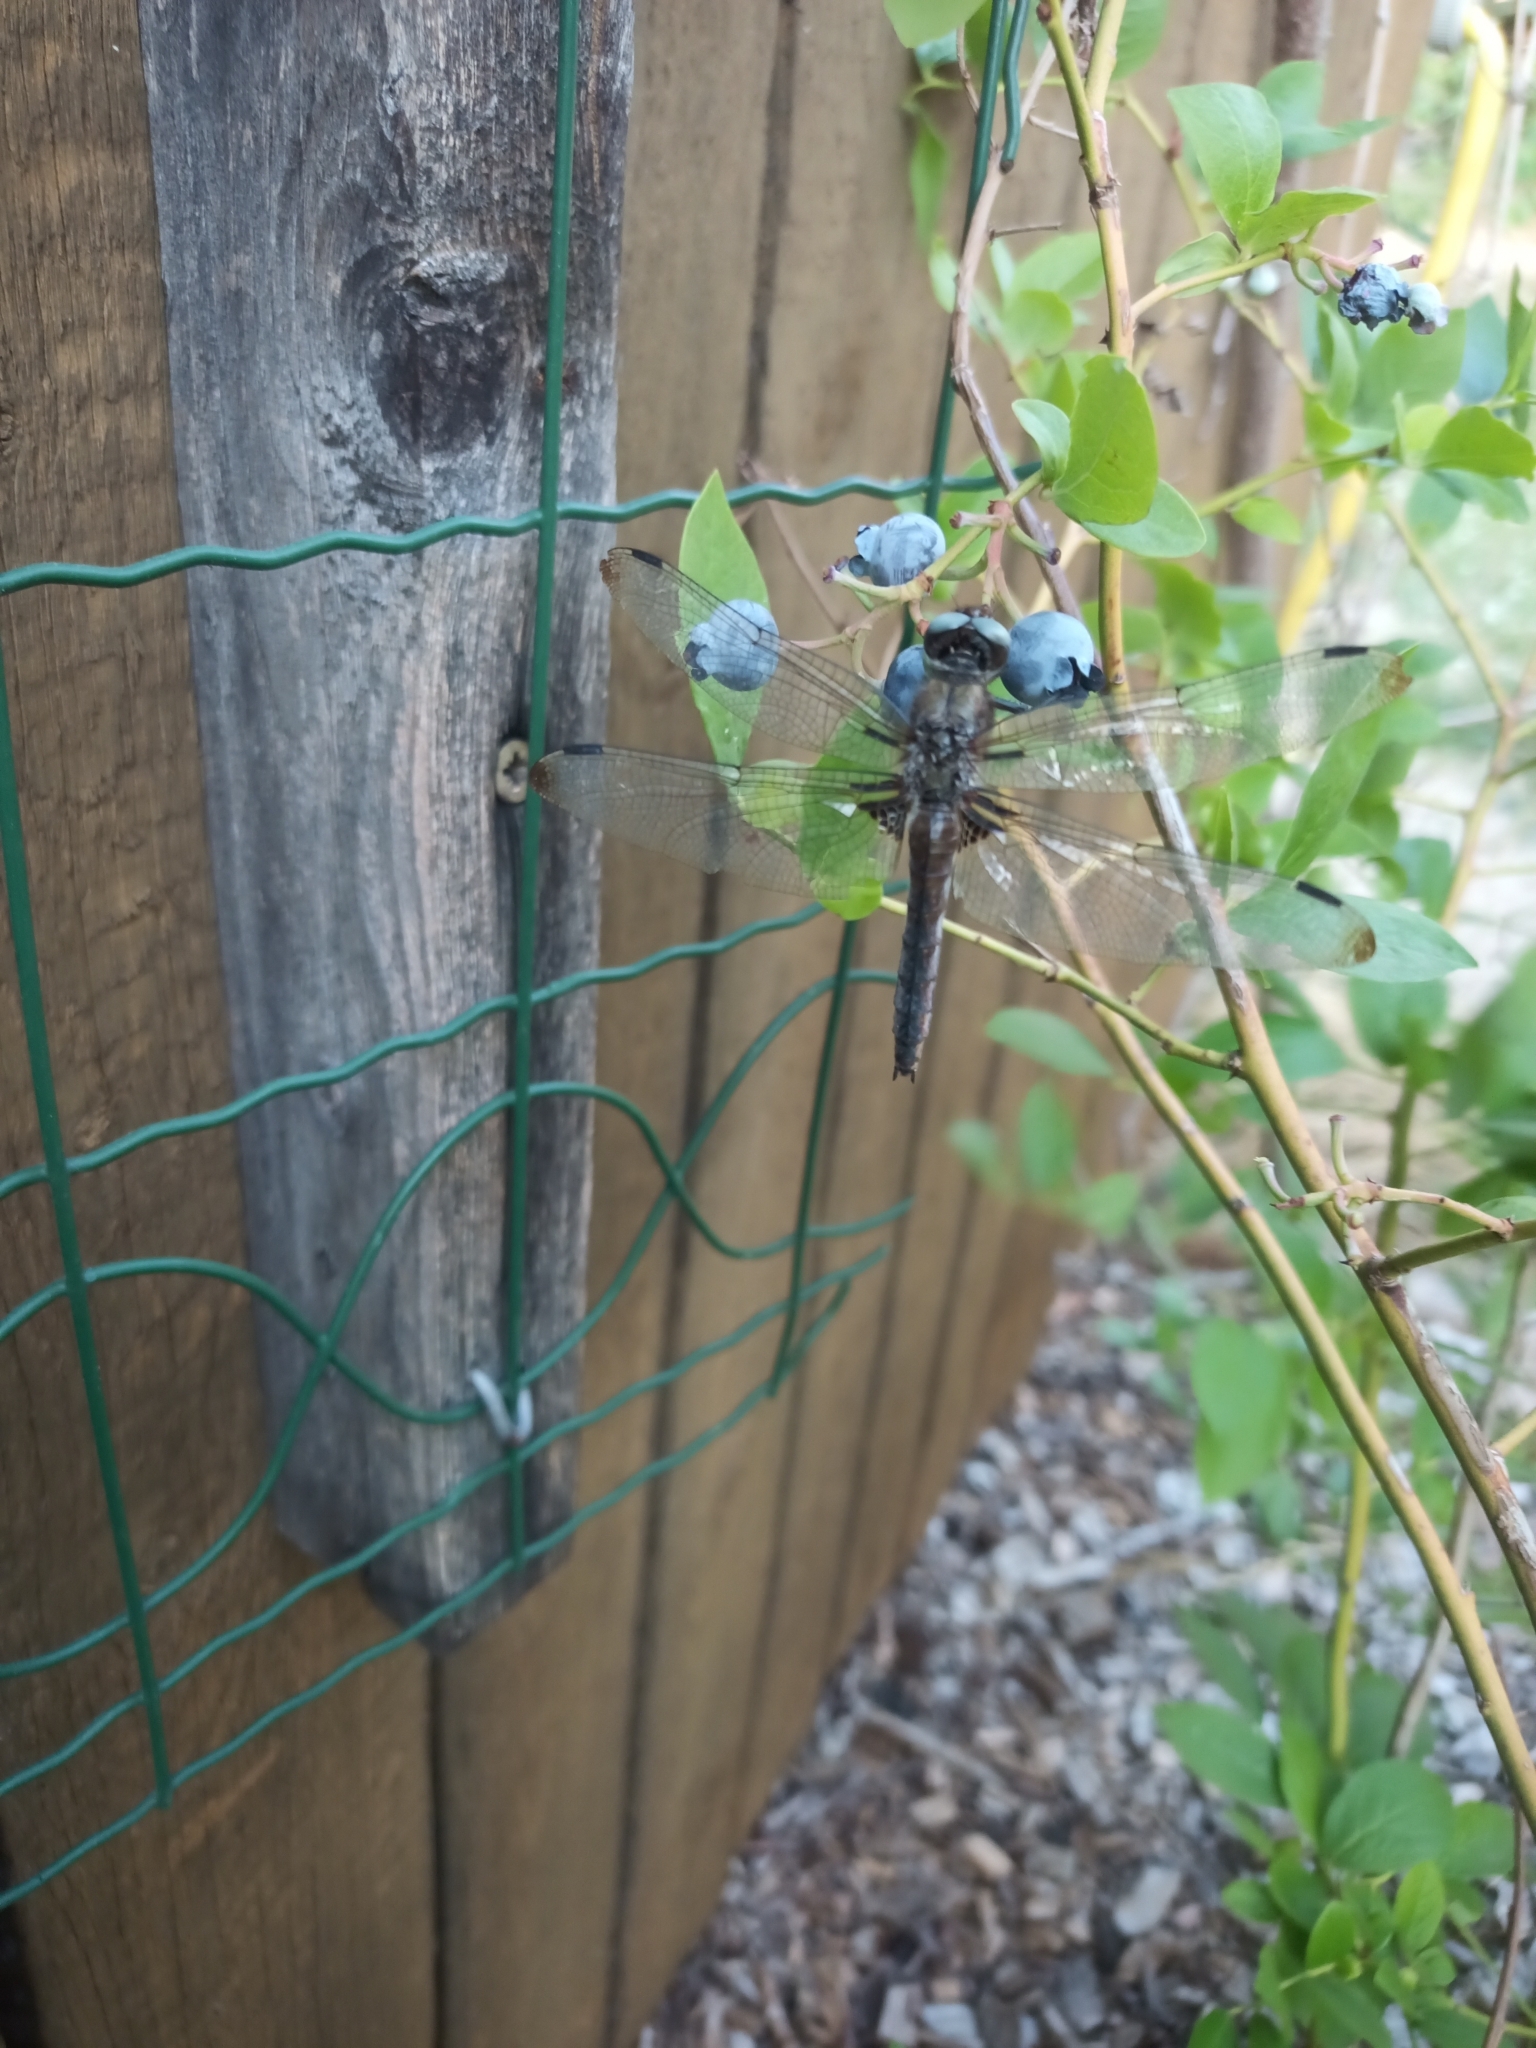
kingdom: Animalia
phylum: Arthropoda
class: Insecta
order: Odonata
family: Libellulidae
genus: Libellula
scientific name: Libellula fulva
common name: Blue chaser
